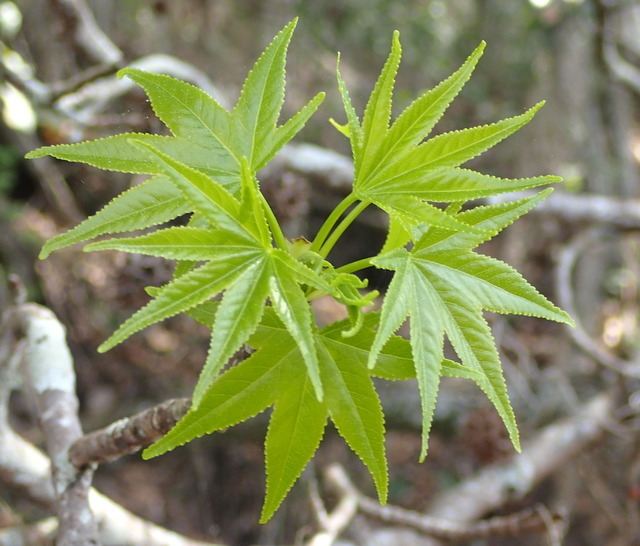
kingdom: Plantae
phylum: Tracheophyta
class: Magnoliopsida
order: Saxifragales
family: Altingiaceae
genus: Liquidambar
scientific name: Liquidambar styraciflua
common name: Sweet gum
